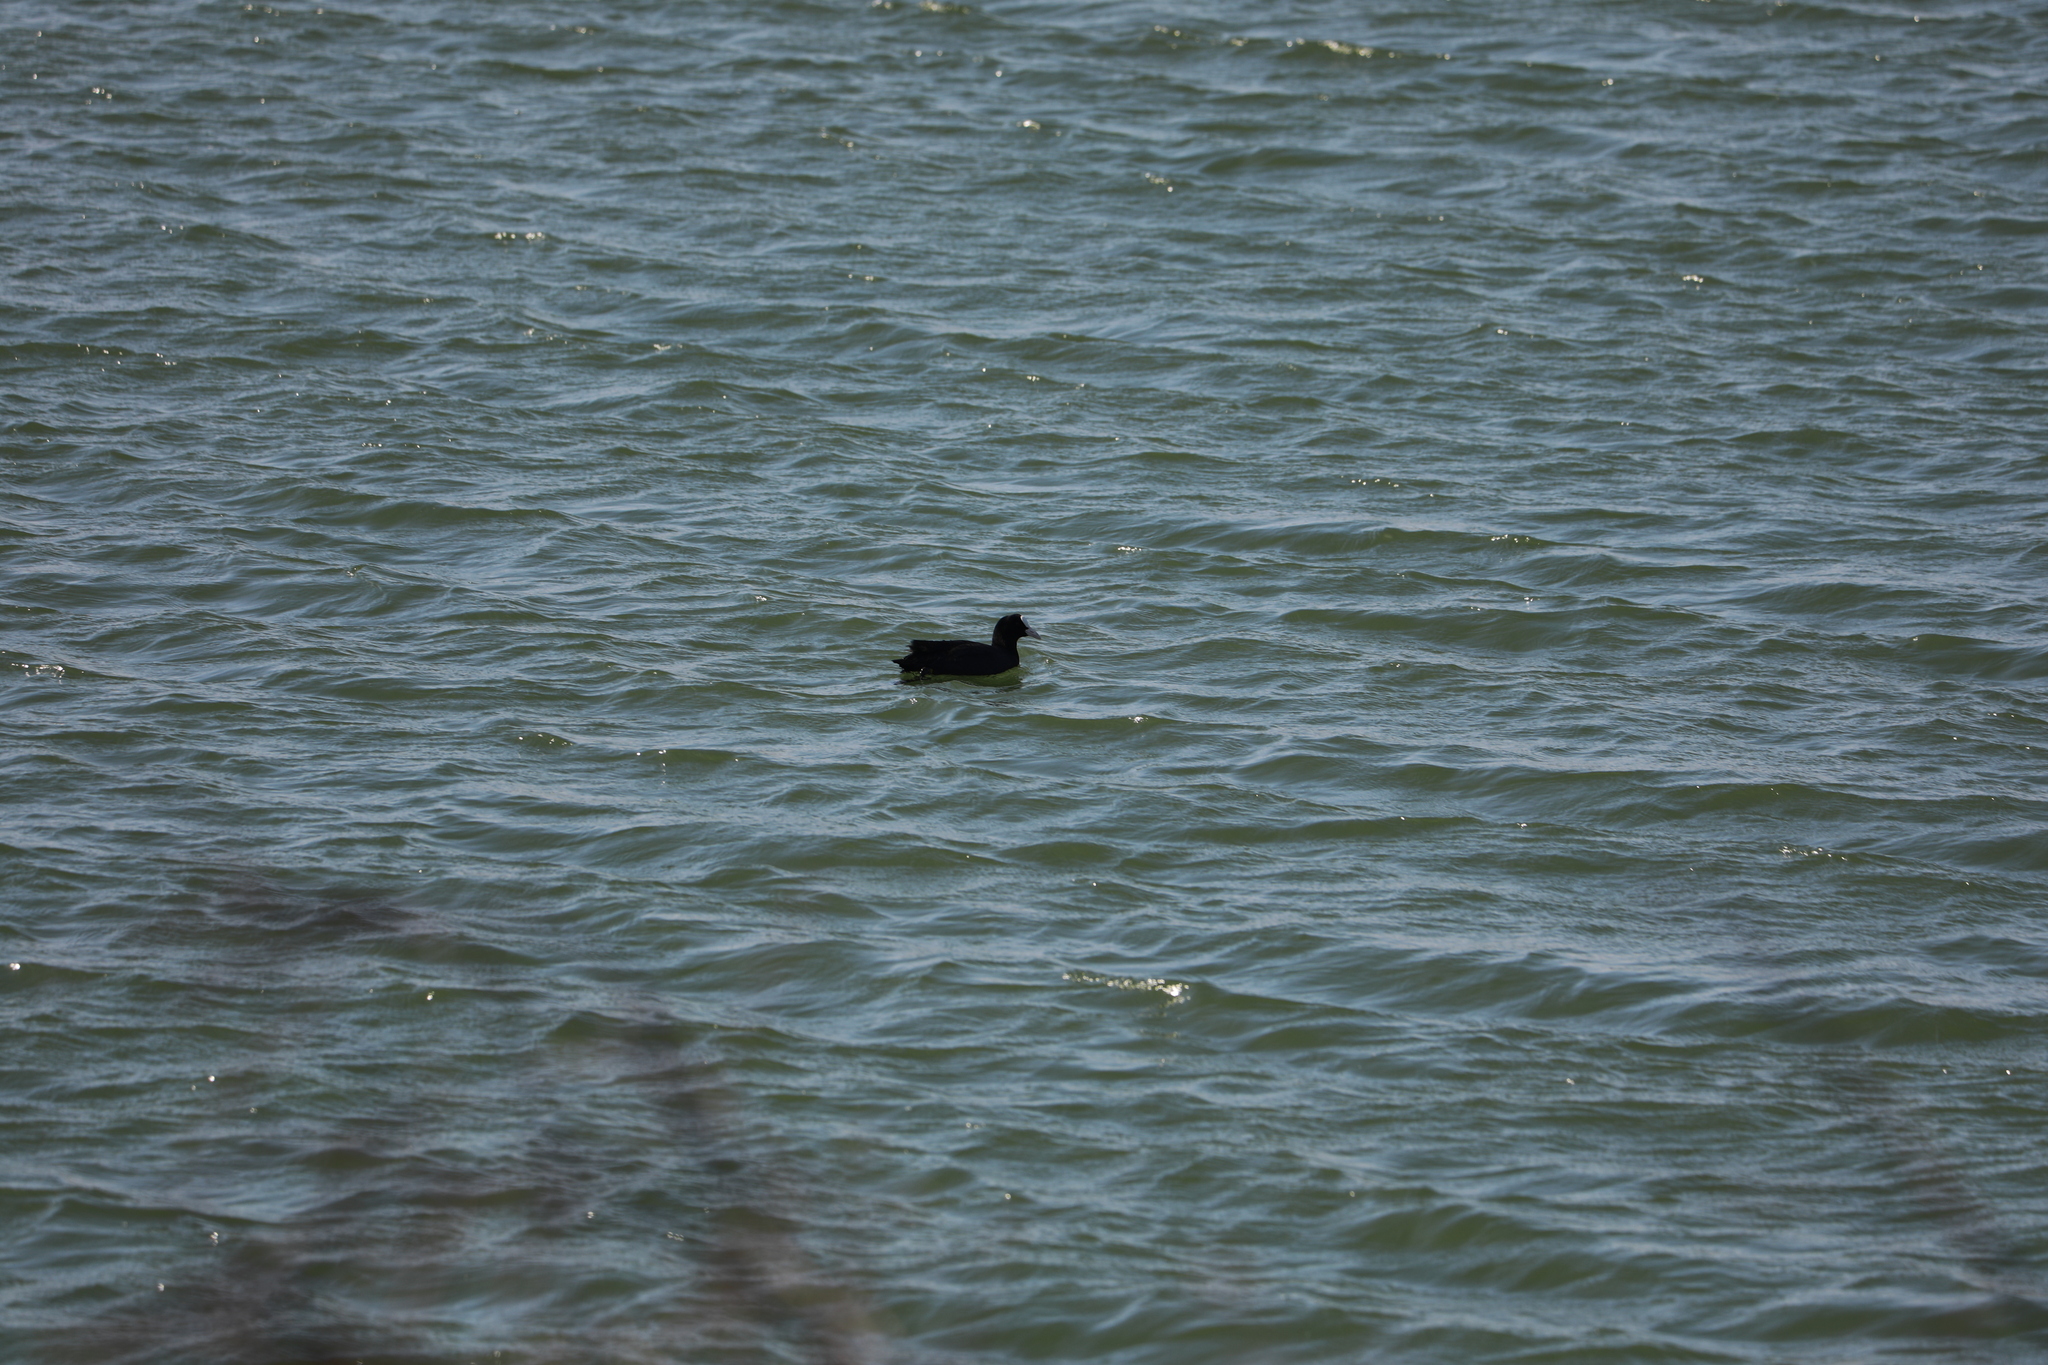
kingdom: Animalia
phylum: Chordata
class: Aves
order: Gruiformes
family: Rallidae
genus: Fulica
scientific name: Fulica atra
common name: Eurasian coot
